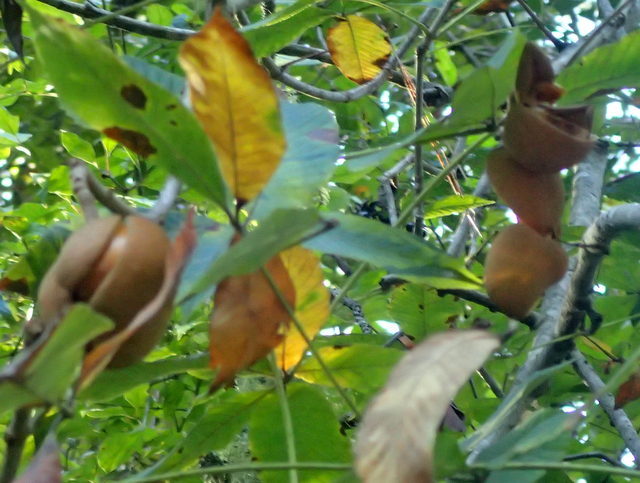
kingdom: Plantae
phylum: Tracheophyta
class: Magnoliopsida
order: Sapindales
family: Sapindaceae
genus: Aesculus
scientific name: Aesculus pavia
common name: Red buckeye
